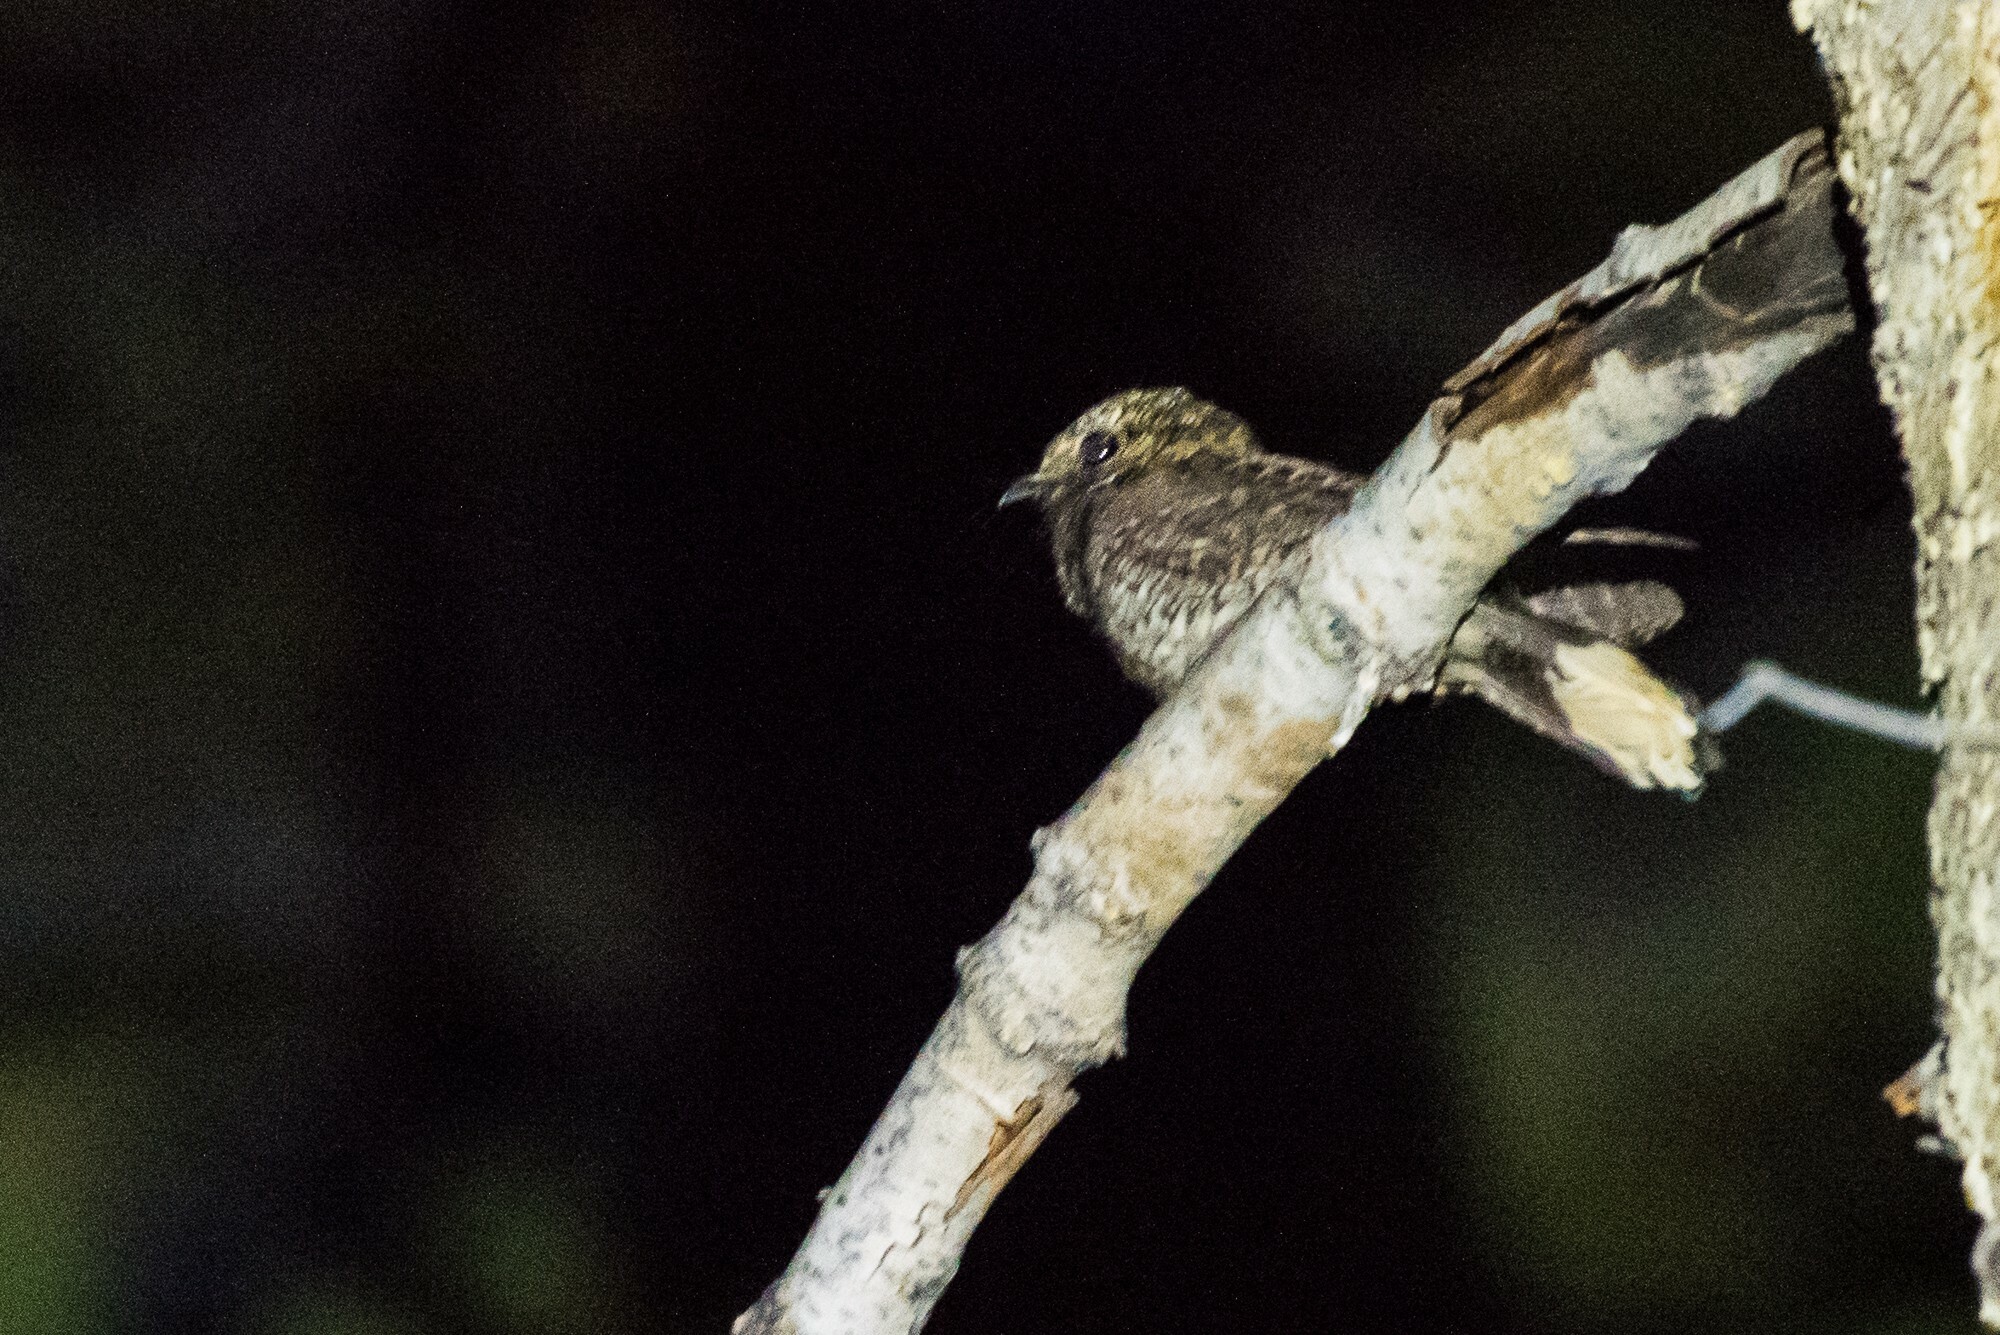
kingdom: Animalia
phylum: Chordata
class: Aves
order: Caprimulgiformes
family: Caprimulgidae
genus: Antrostomus
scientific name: Antrostomus arizonae
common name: Mexican whip-poor-will
